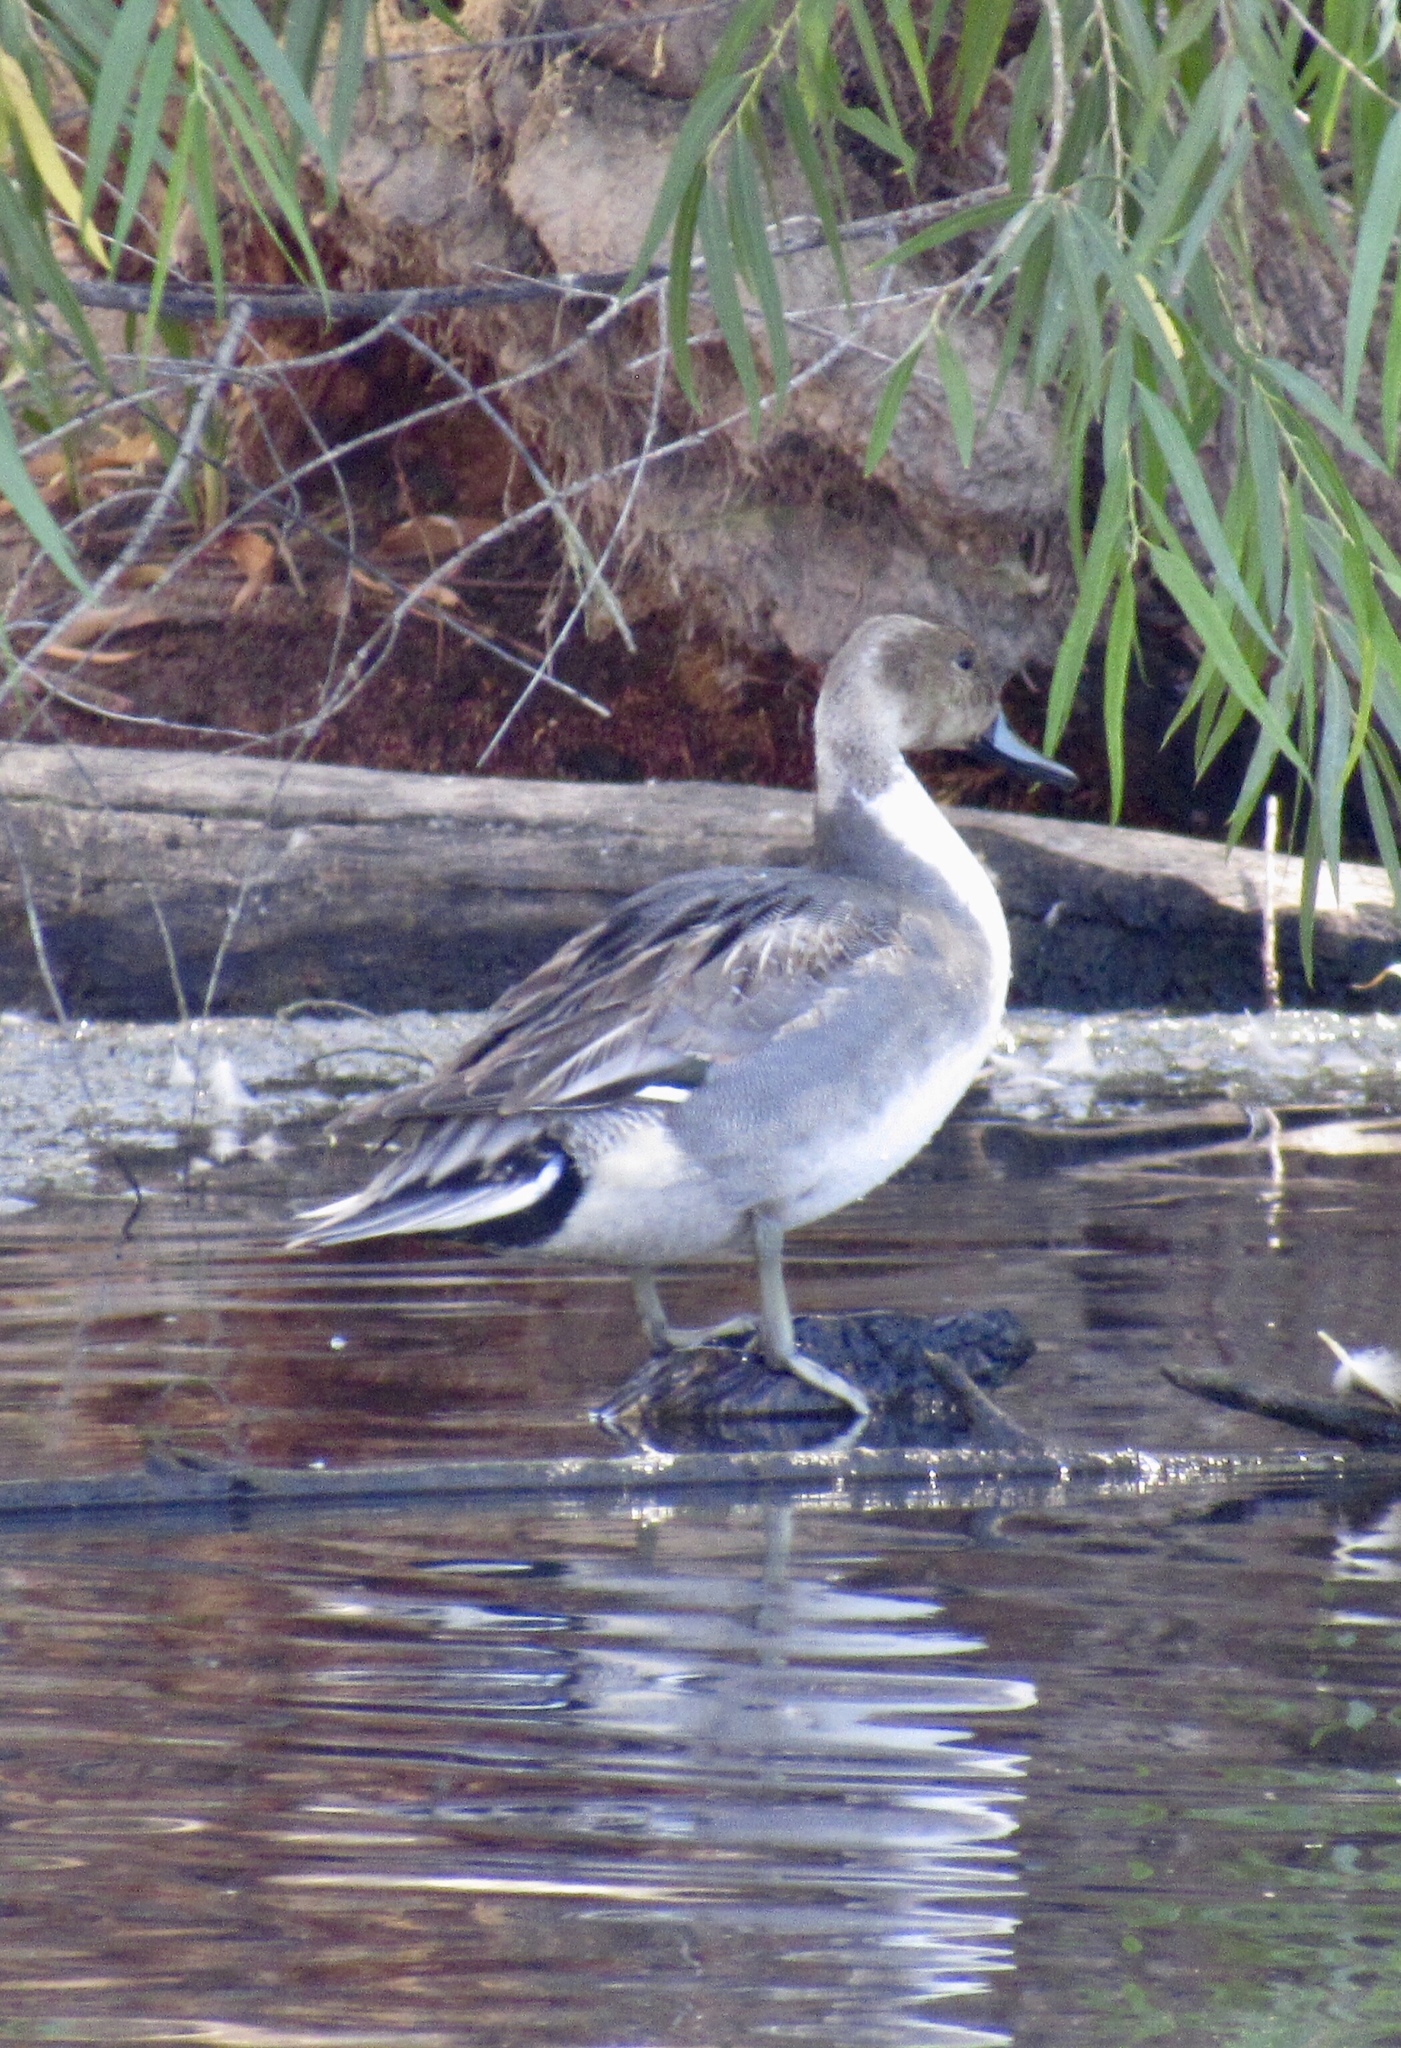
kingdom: Animalia
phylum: Chordata
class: Aves
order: Anseriformes
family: Anatidae
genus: Anas
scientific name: Anas acuta
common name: Northern pintail
